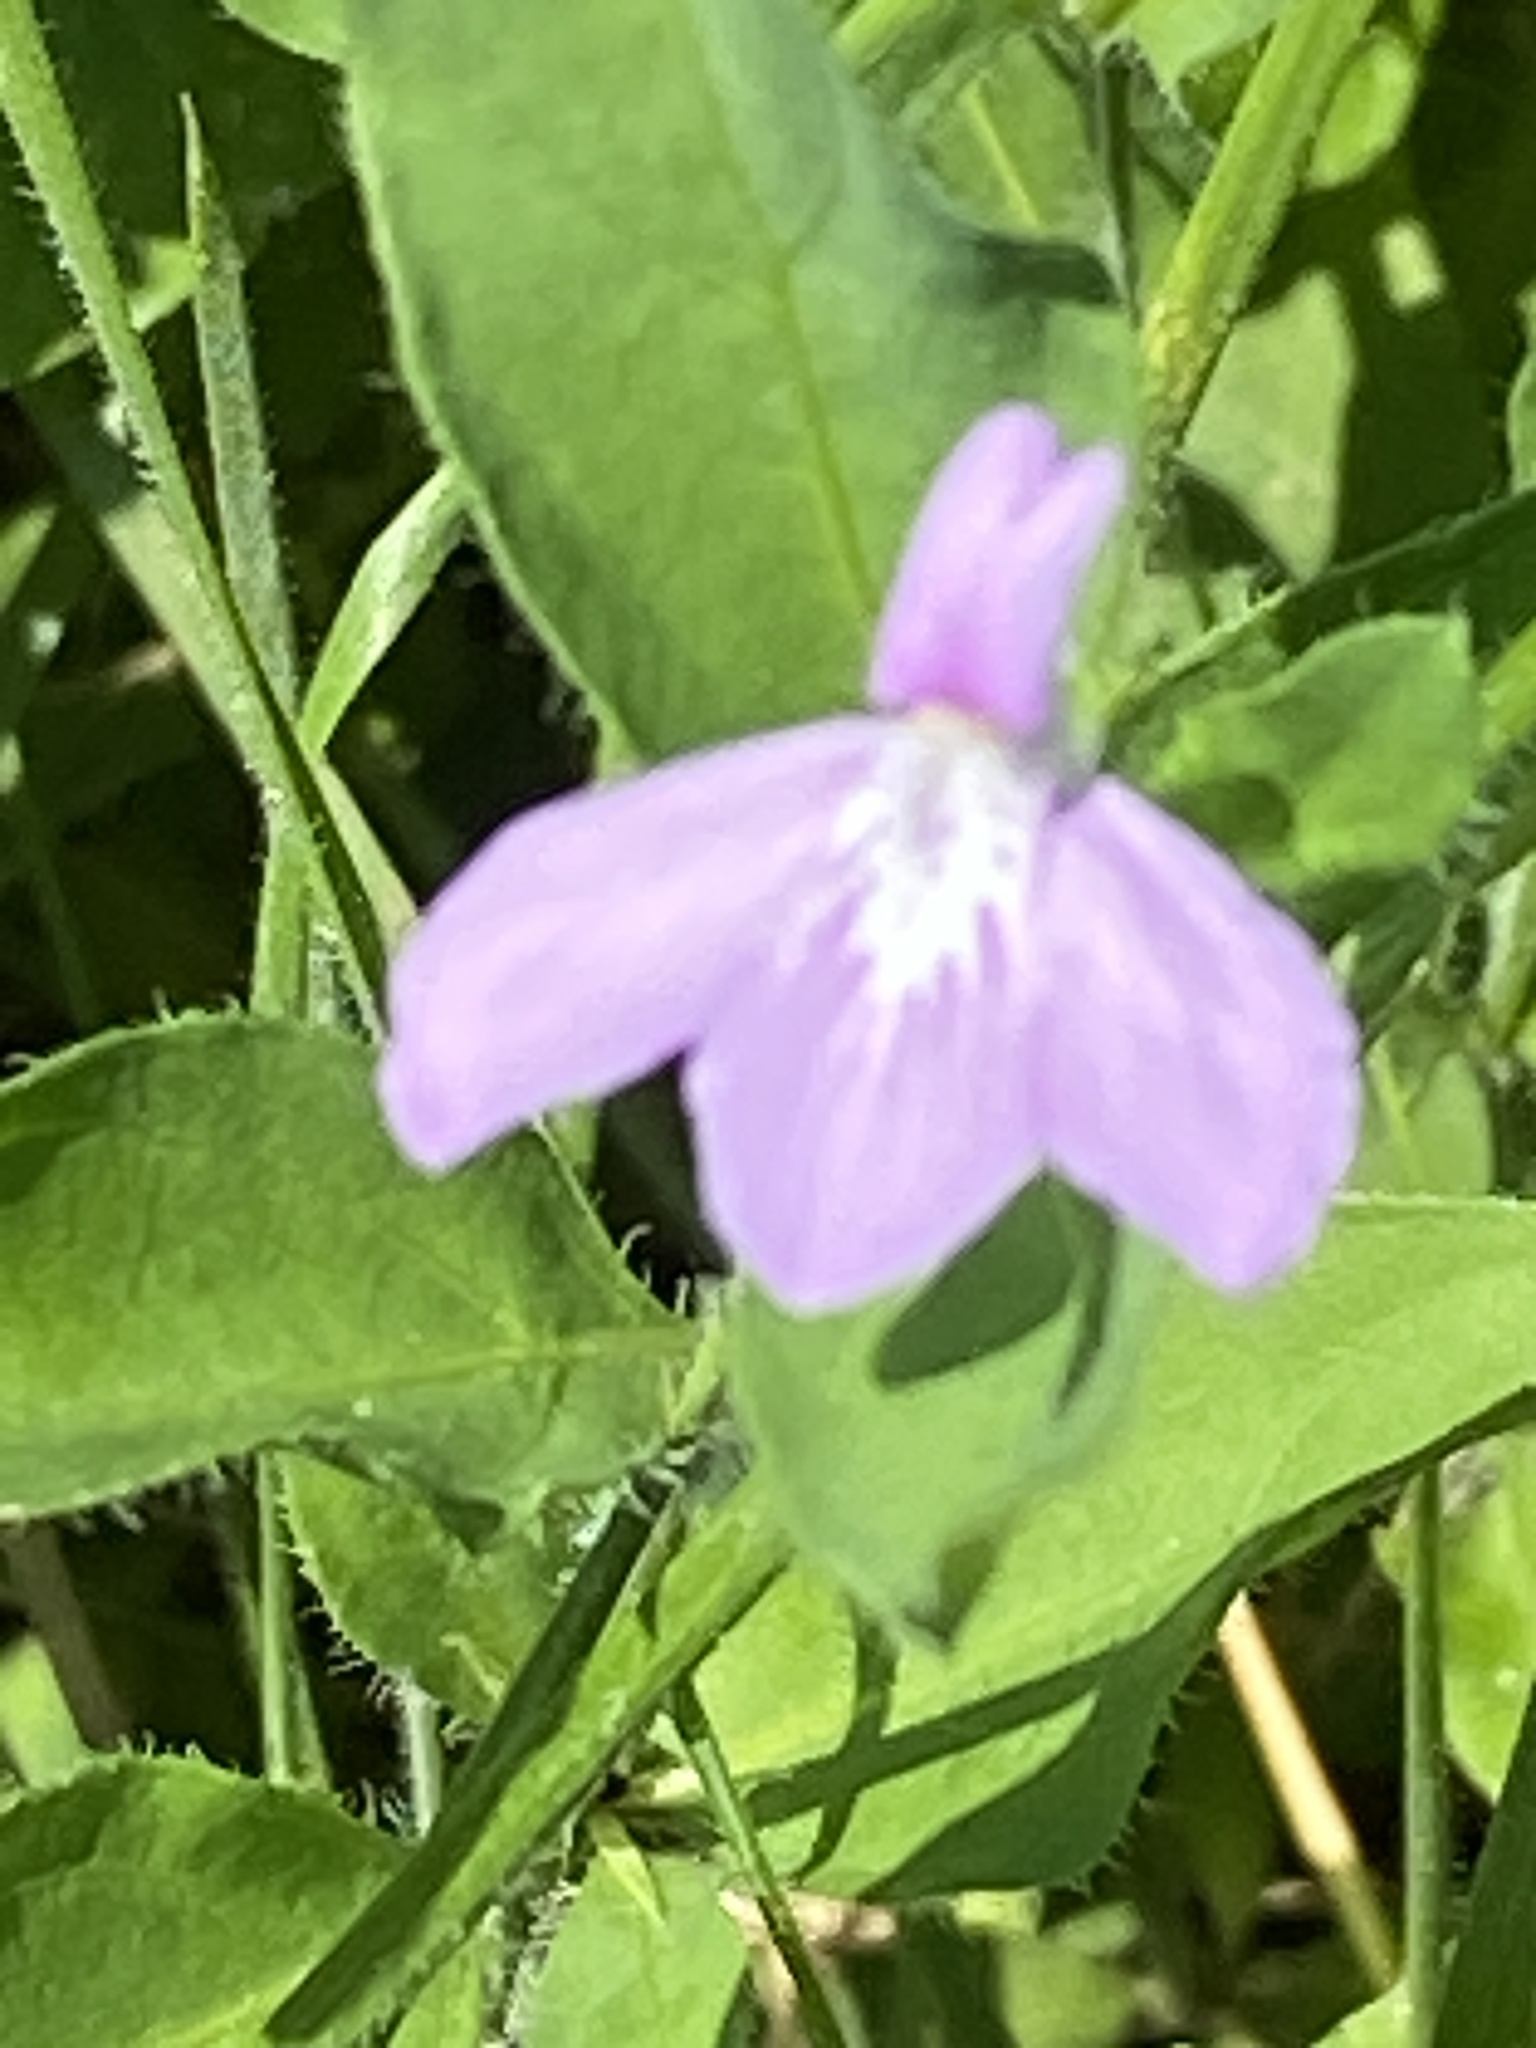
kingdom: Plantae
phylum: Tracheophyta
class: Magnoliopsida
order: Lamiales
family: Acanthaceae
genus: Justicia
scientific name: Justicia pilosella
